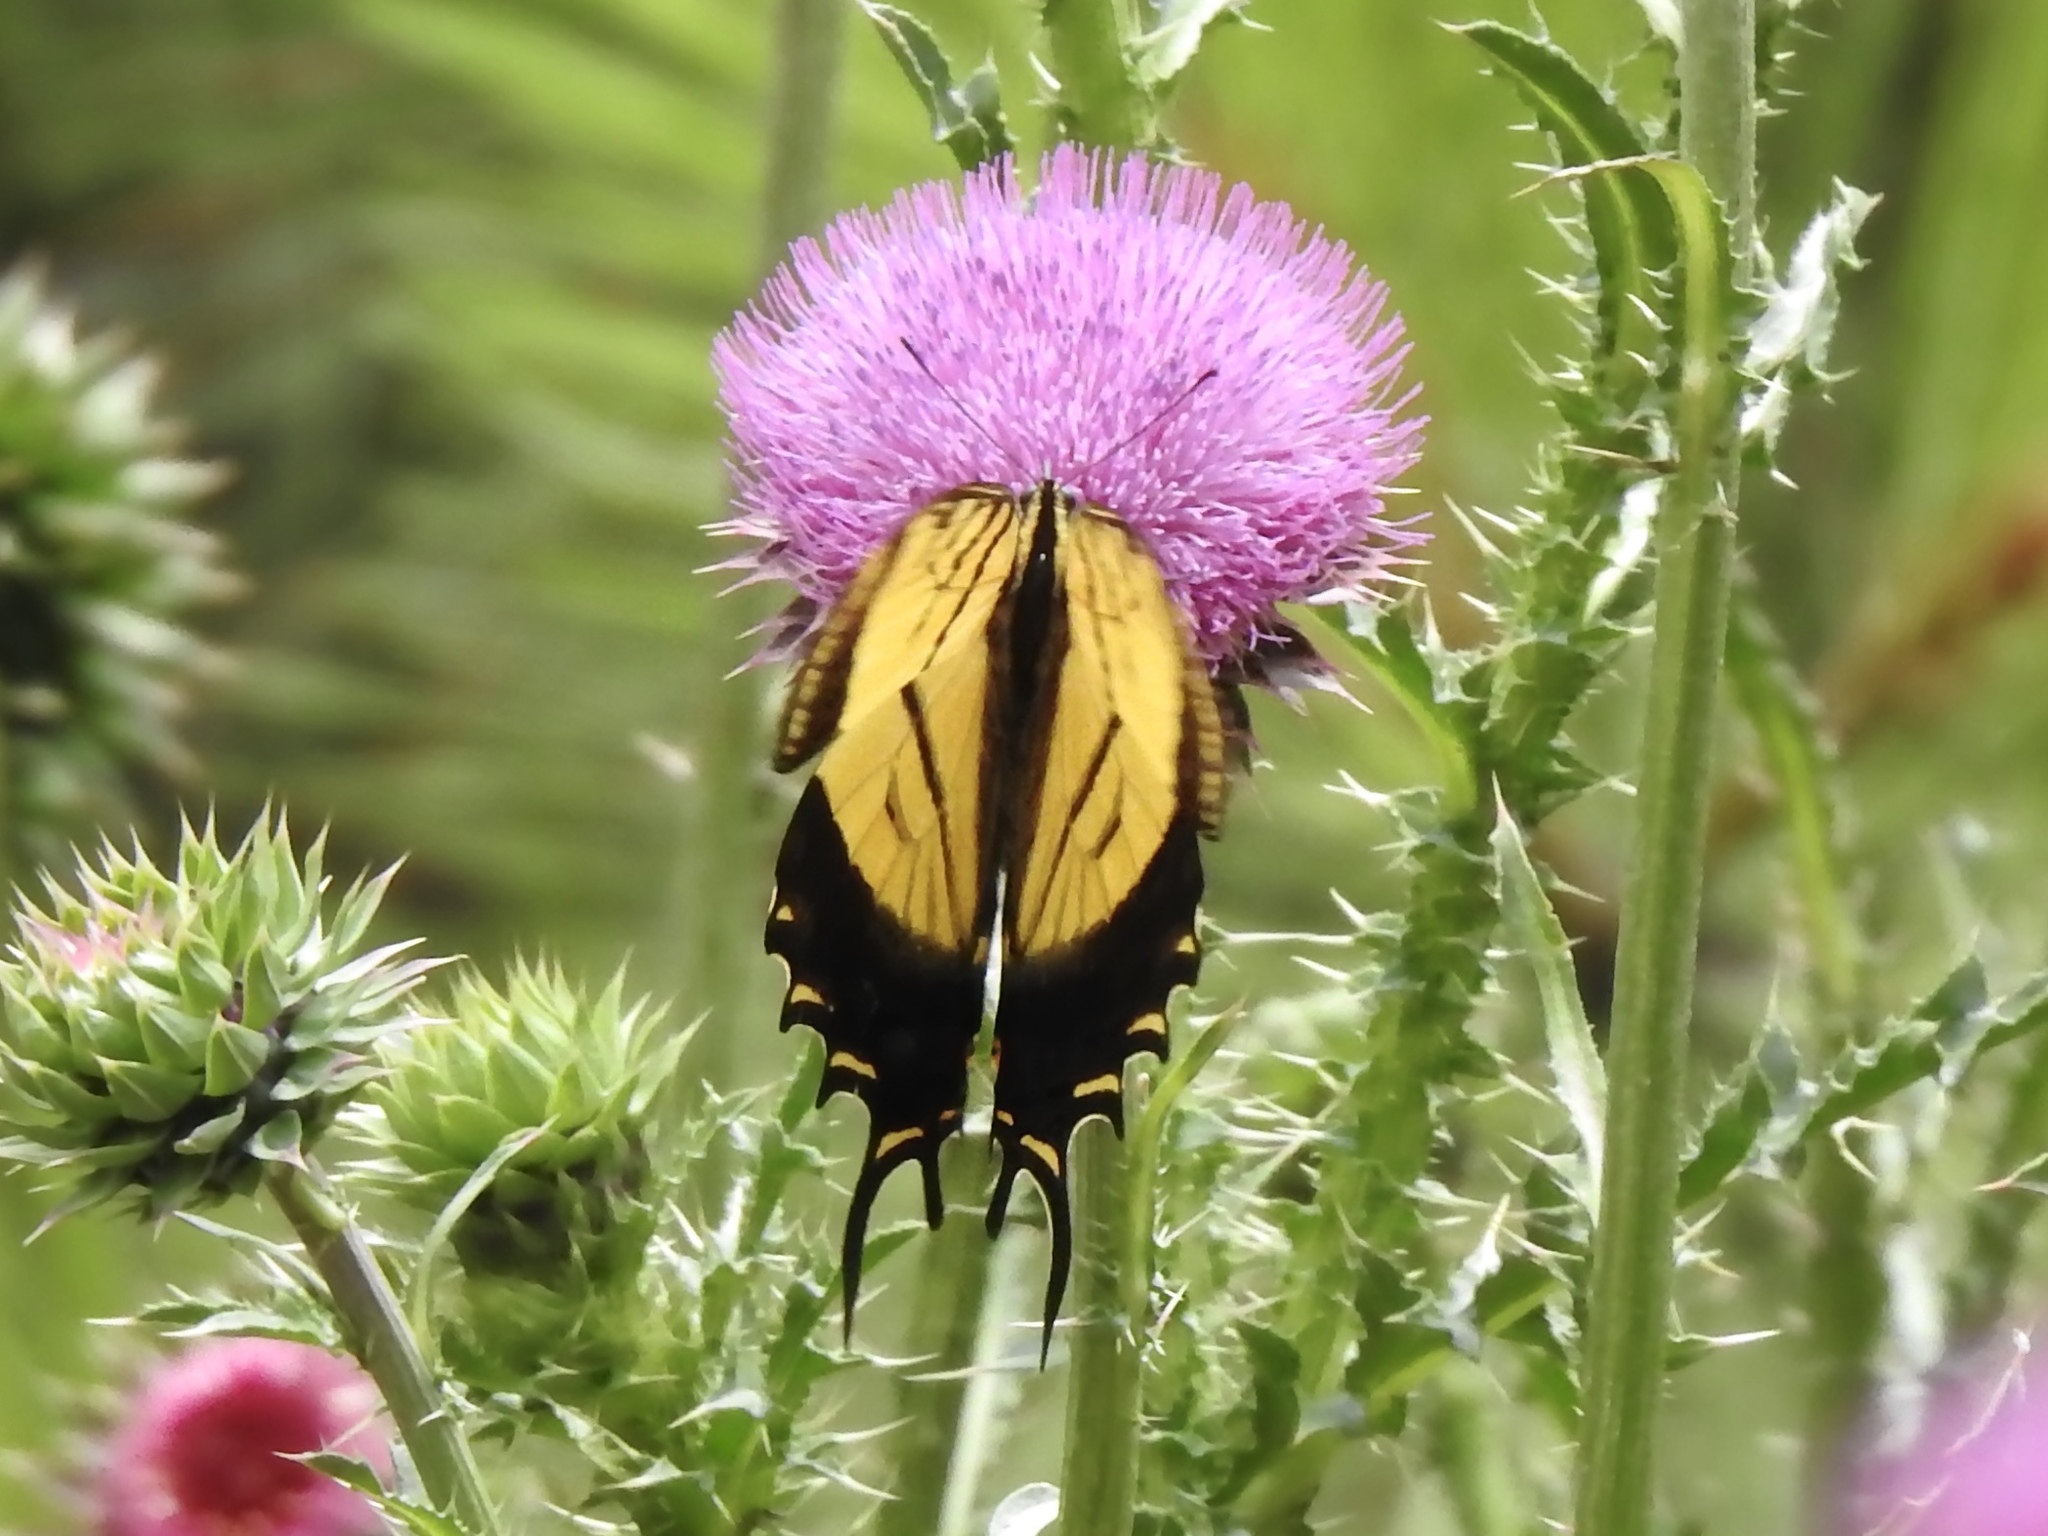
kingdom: Animalia
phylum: Arthropoda
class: Insecta
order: Lepidoptera
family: Papilionidae
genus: Papilio
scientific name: Papilio multicaudata
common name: Two-tailed tiger swallowtail
